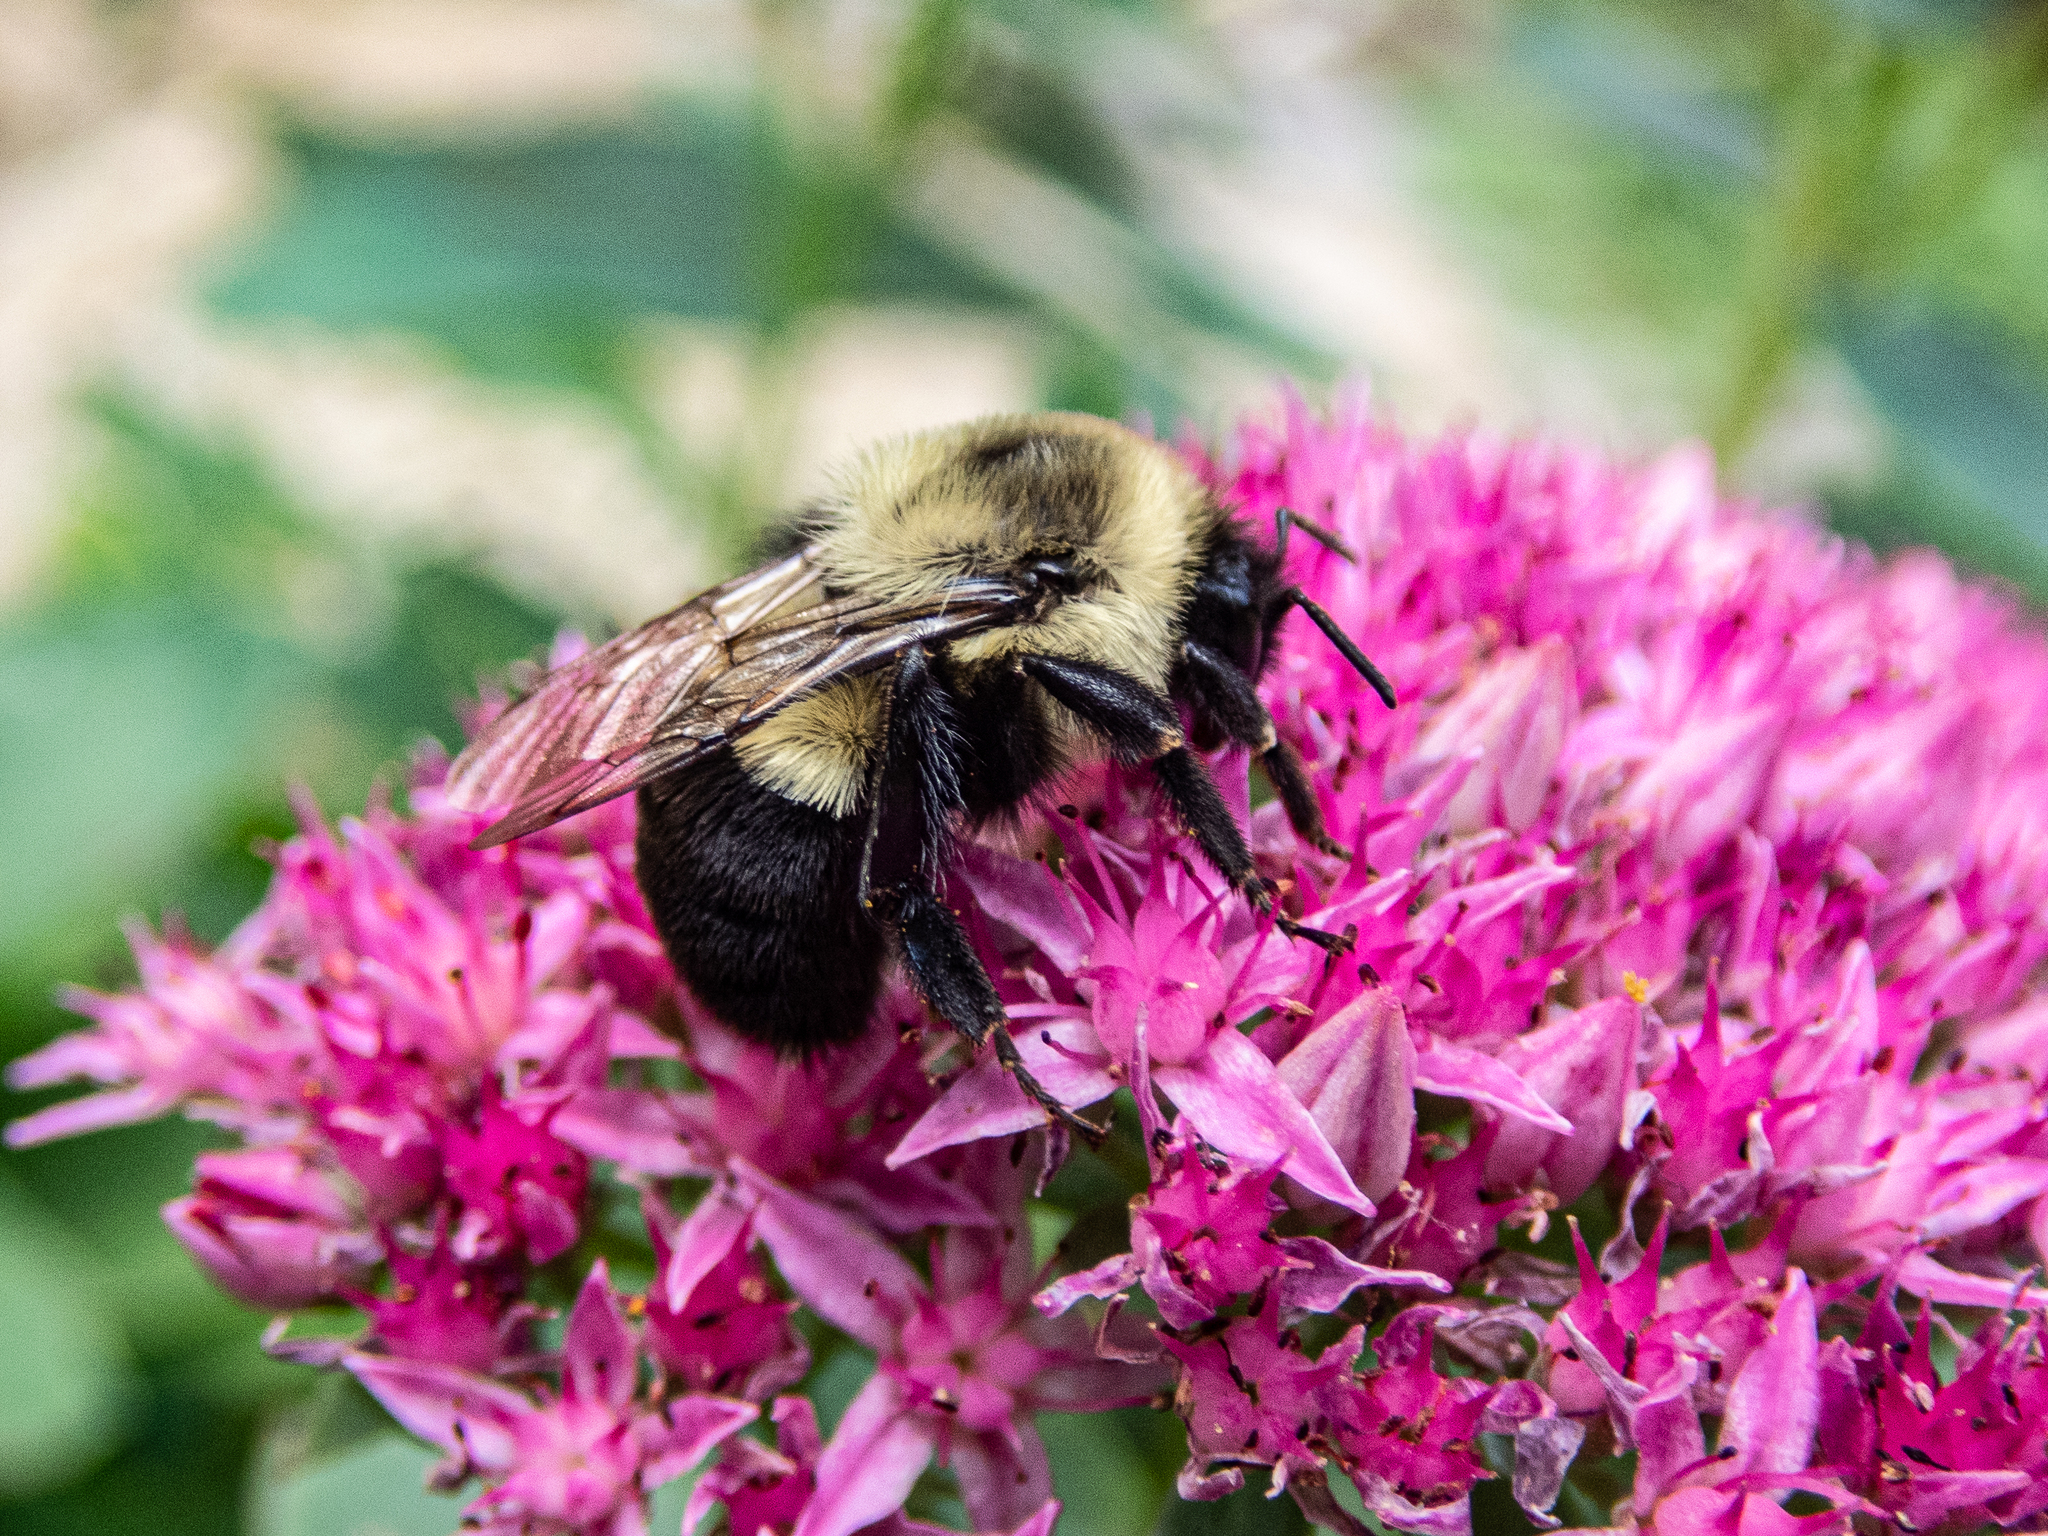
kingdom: Animalia
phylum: Arthropoda
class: Insecta
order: Hymenoptera
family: Apidae
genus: Bombus
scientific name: Bombus impatiens
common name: Common eastern bumble bee
